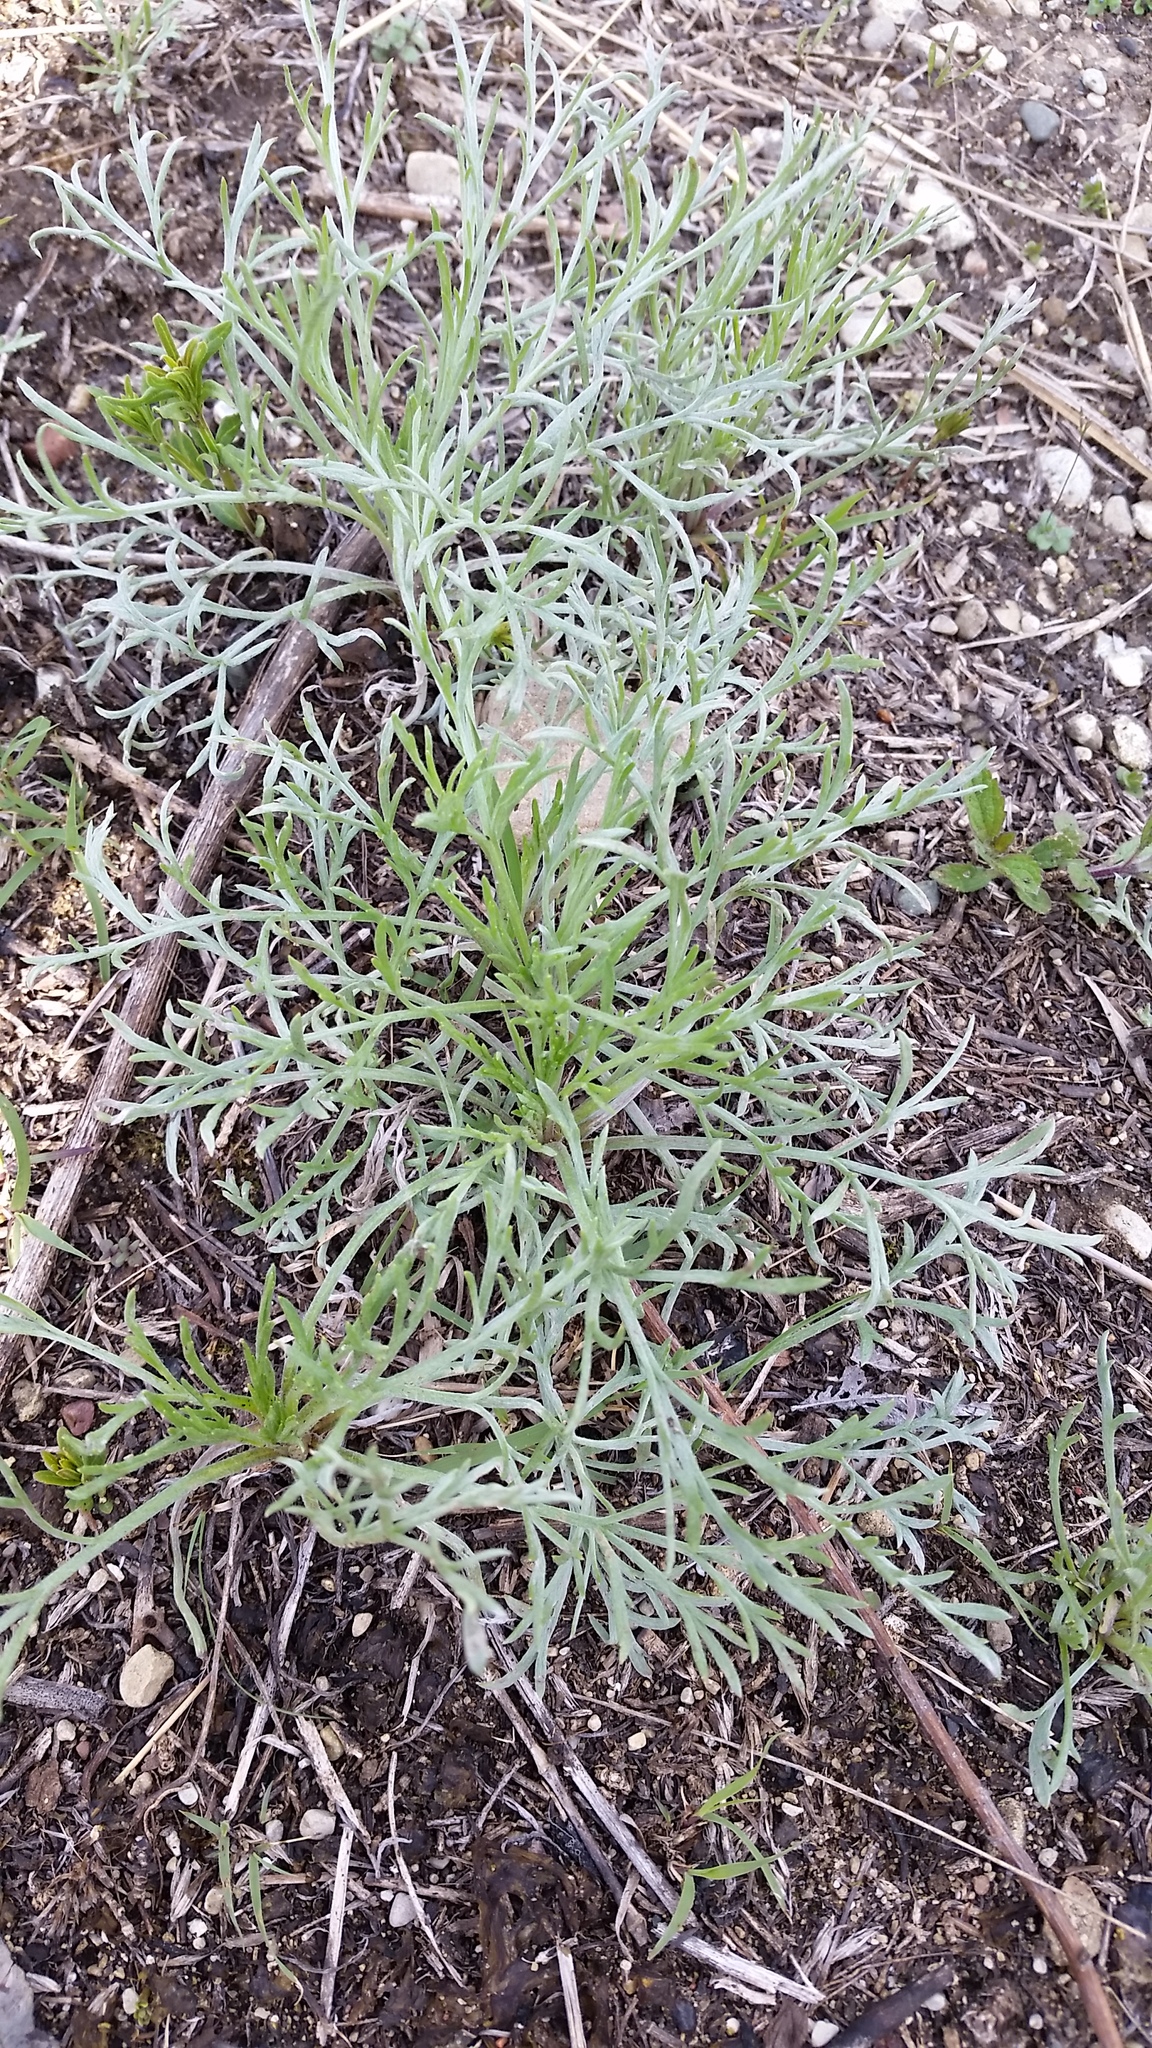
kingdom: Plantae
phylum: Tracheophyta
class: Magnoliopsida
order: Asterales
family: Asteraceae
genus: Artemisia
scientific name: Artemisia campestris
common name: Field wormwood
